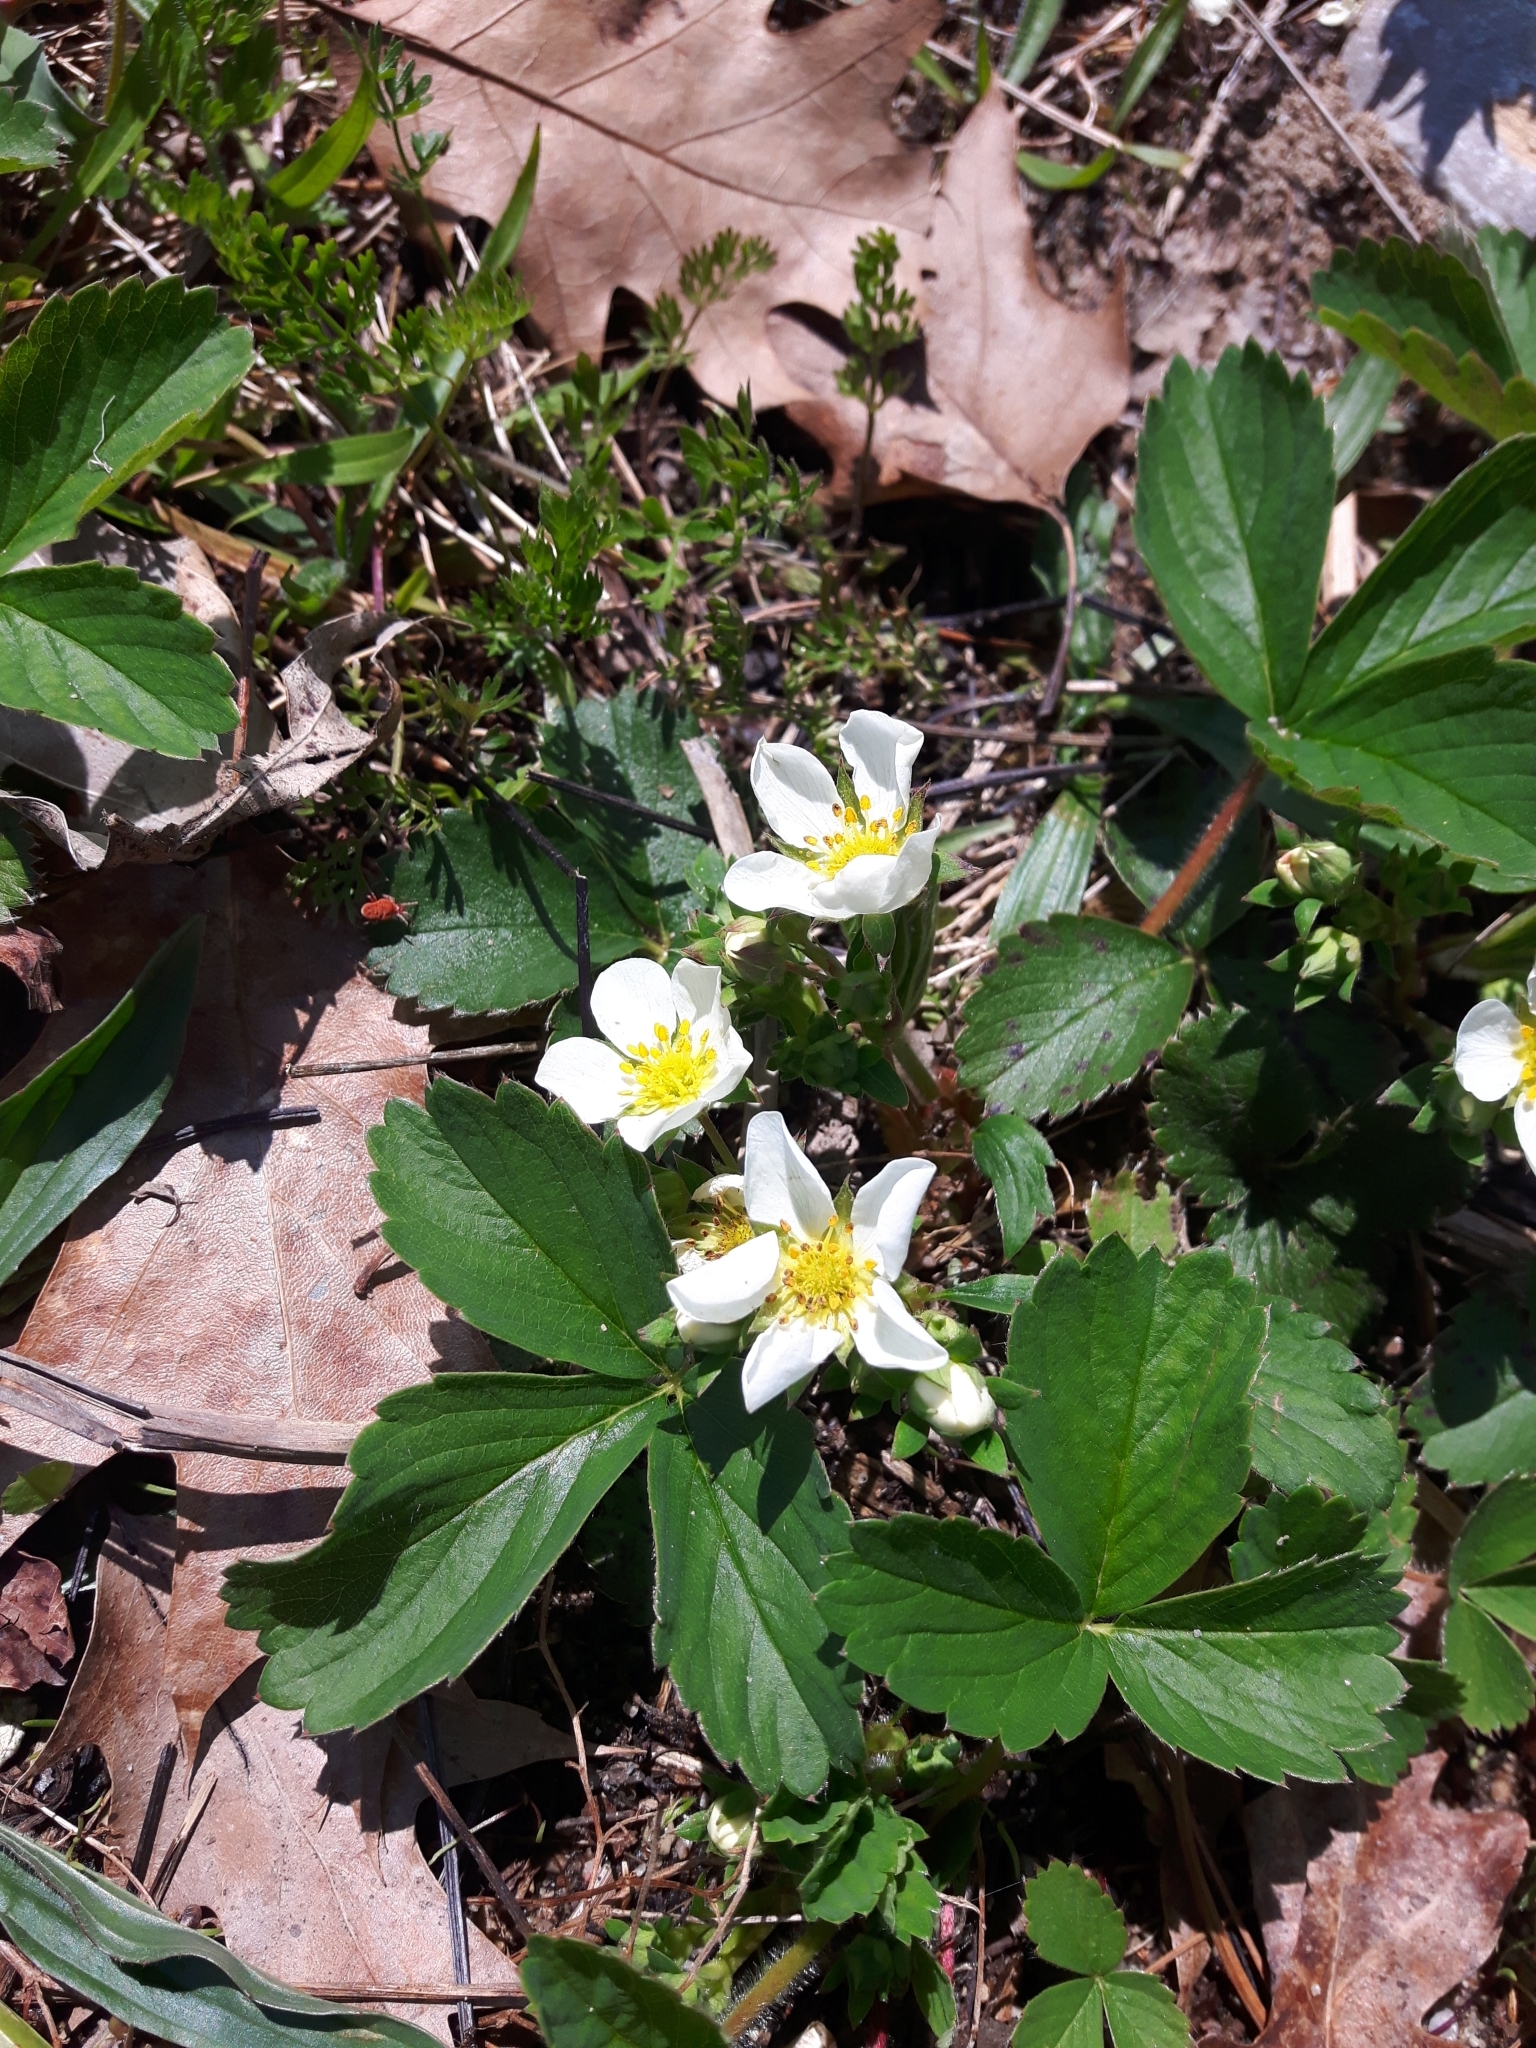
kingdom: Plantae
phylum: Tracheophyta
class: Magnoliopsida
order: Rosales
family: Rosaceae
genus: Fragaria
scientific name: Fragaria virginiana
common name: Thickleaved wild strawberry
